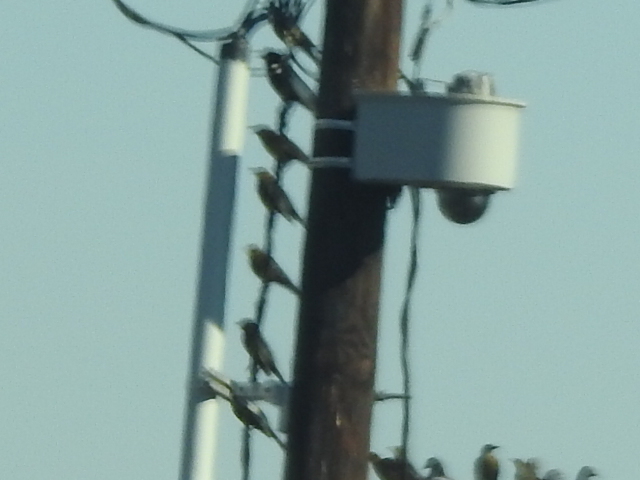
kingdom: Animalia
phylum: Chordata
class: Aves
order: Passeriformes
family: Icteridae
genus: Quiscalus
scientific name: Quiscalus mexicanus
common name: Great-tailed grackle
